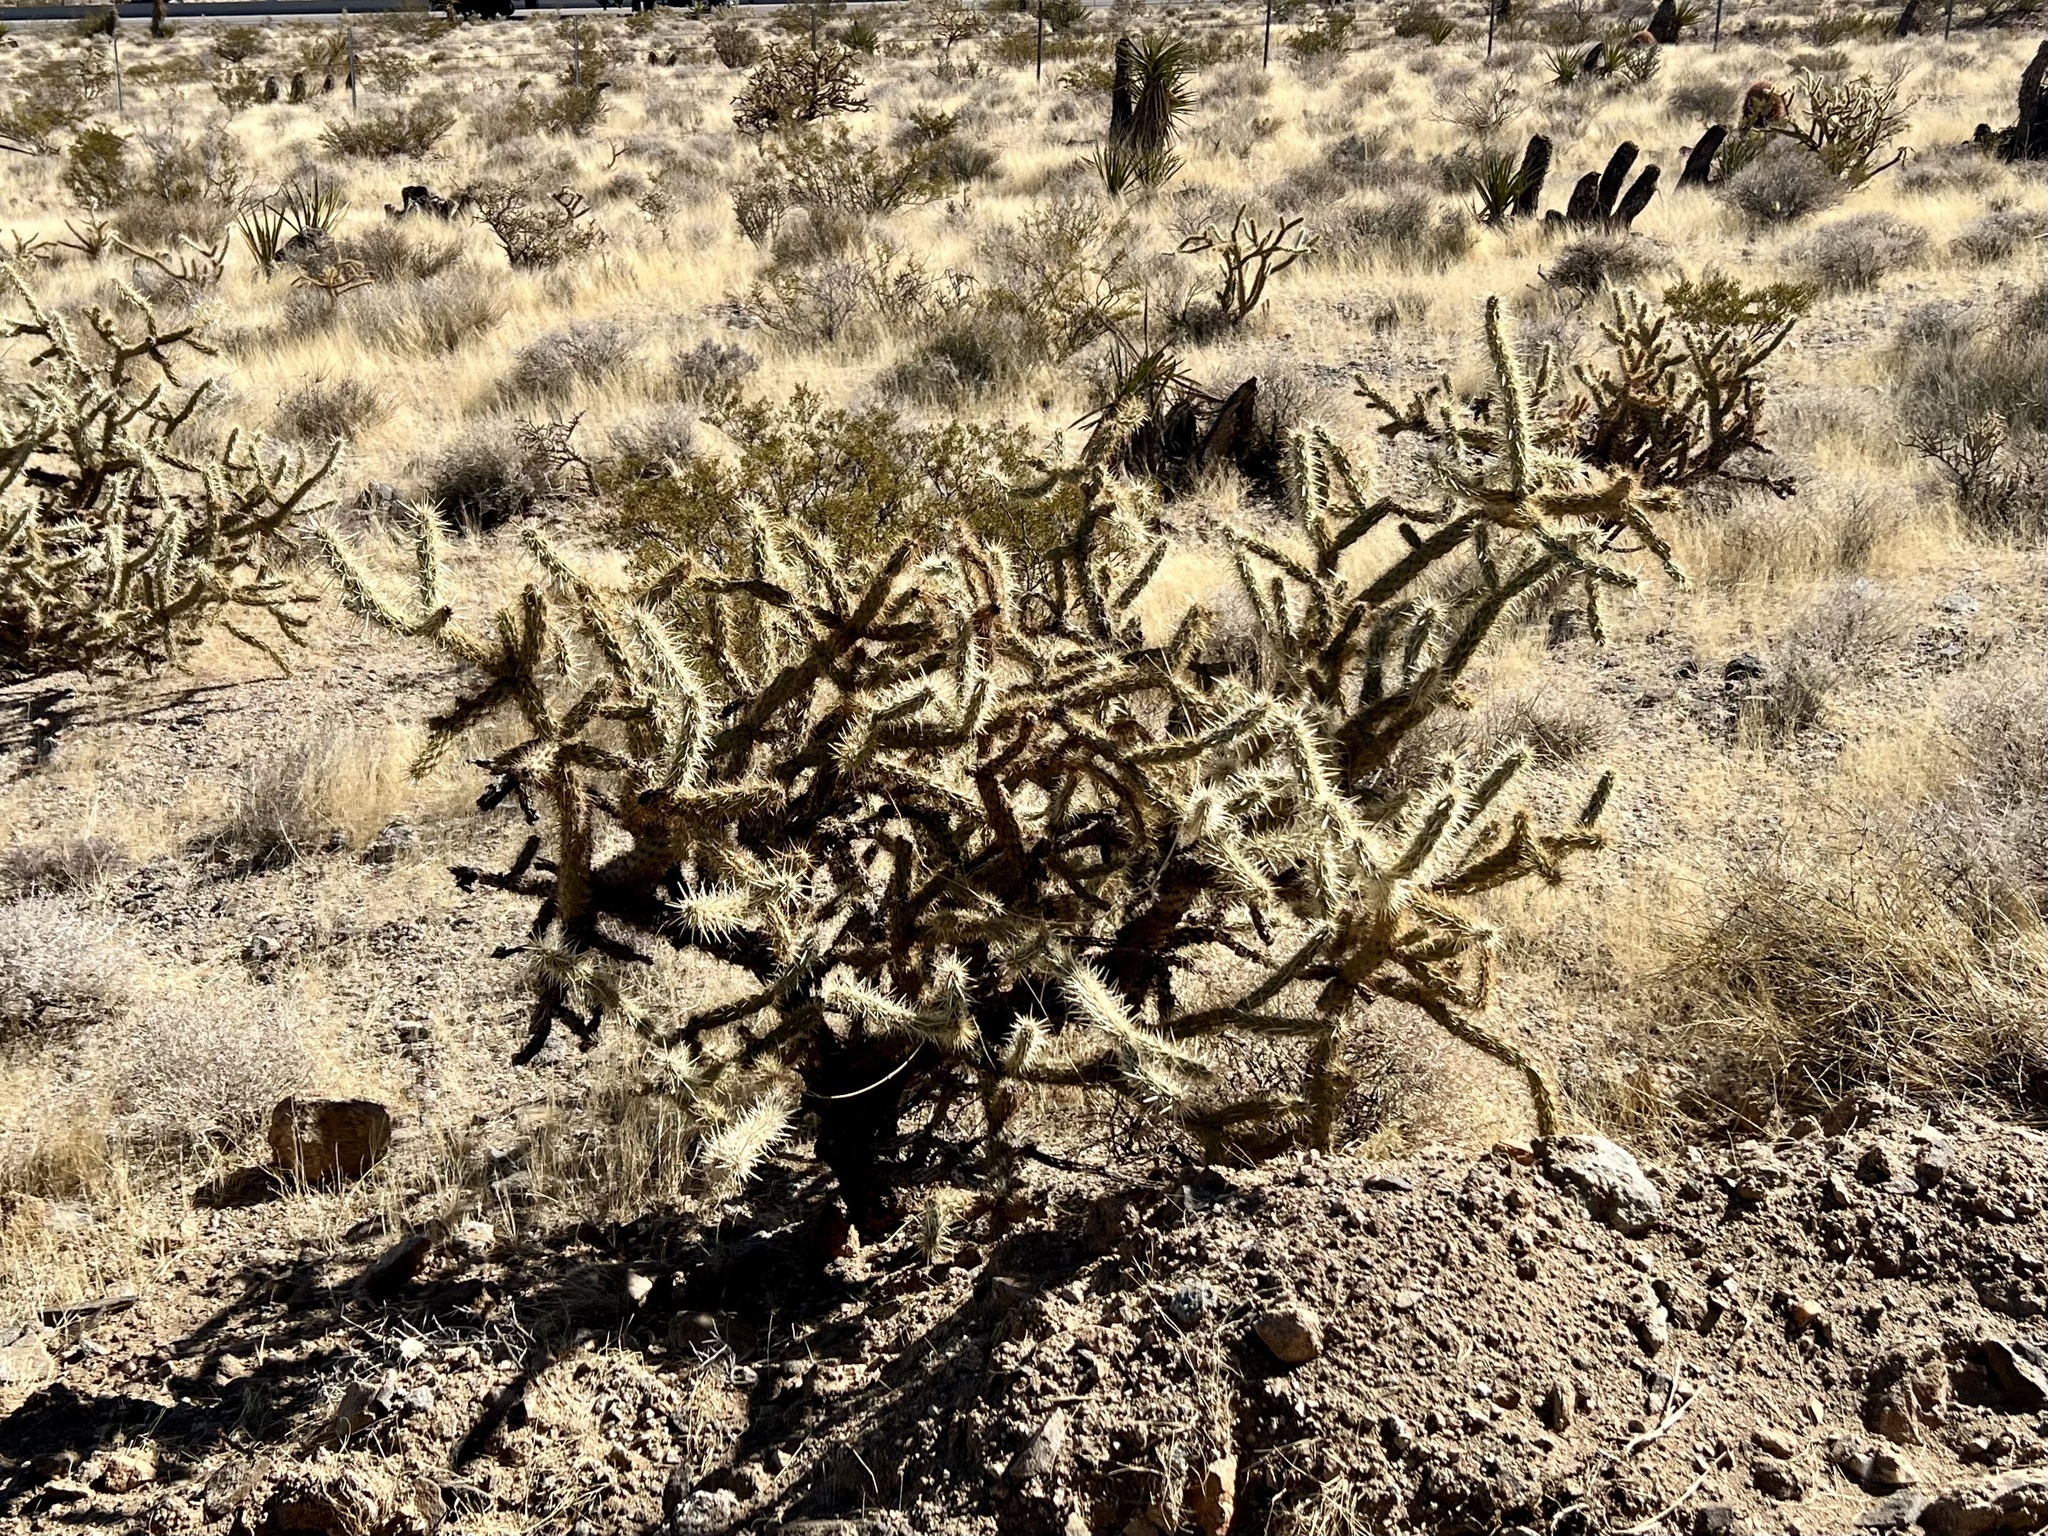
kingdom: Plantae
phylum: Tracheophyta
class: Magnoliopsida
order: Caryophyllales
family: Cactaceae
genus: Cylindropuntia
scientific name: Cylindropuntia acanthocarpa
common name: Buckhorn cholla
